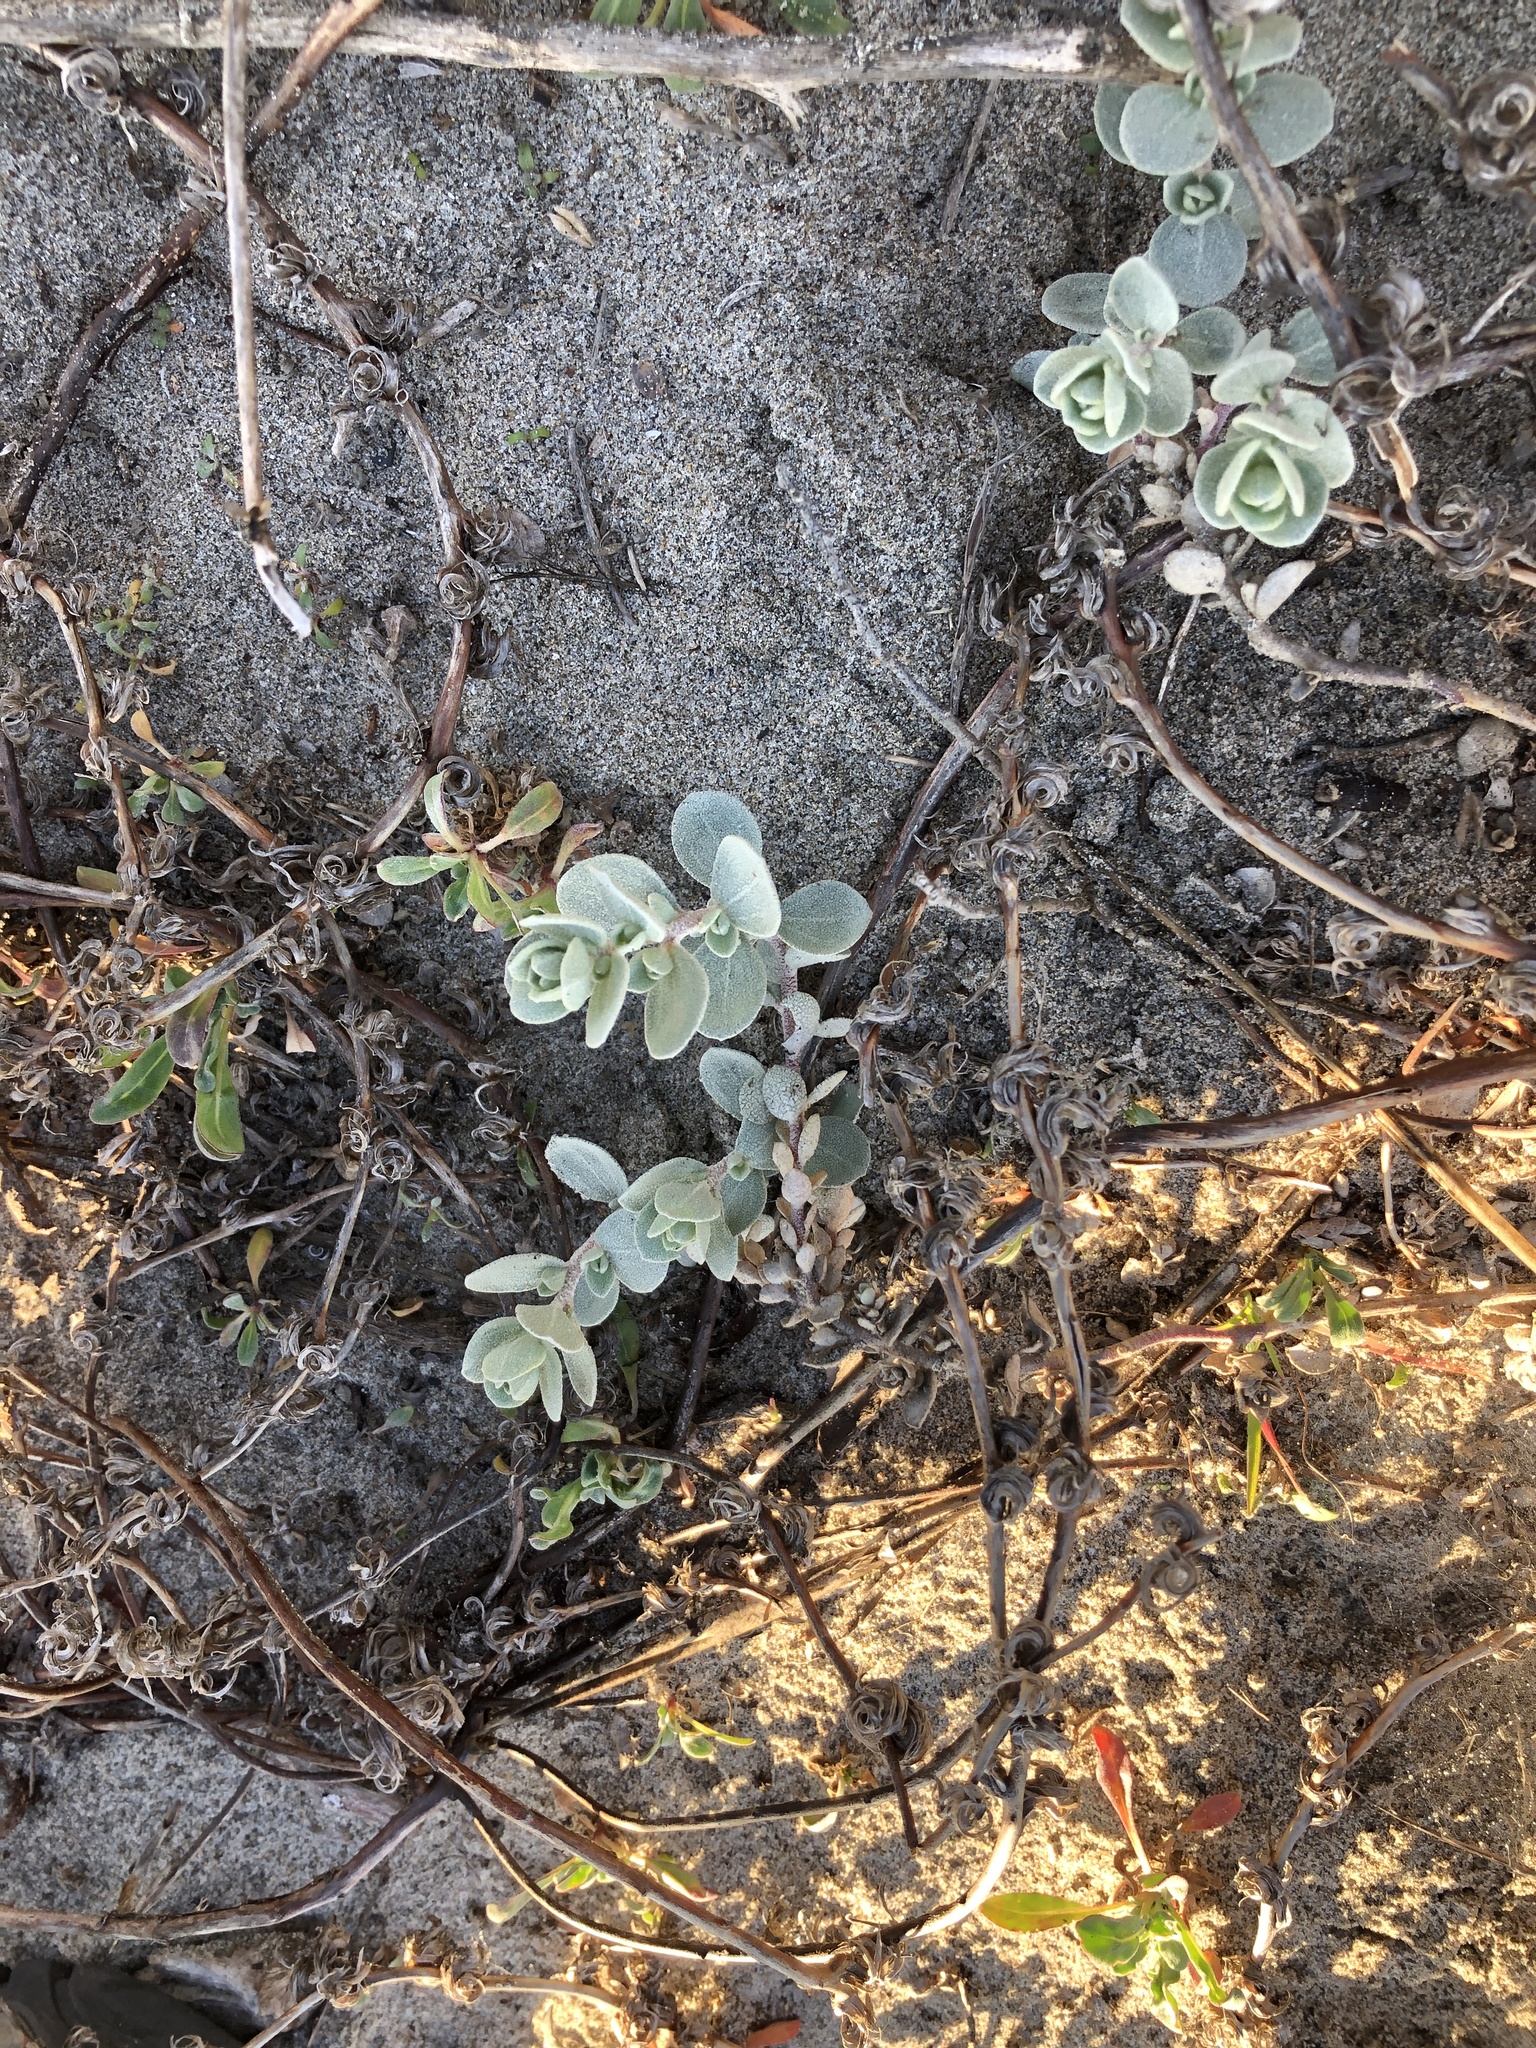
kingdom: Plantae
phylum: Tracheophyta
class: Magnoliopsida
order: Caryophyllales
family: Amaranthaceae
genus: Atriplex
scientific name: Atriplex leucophylla
